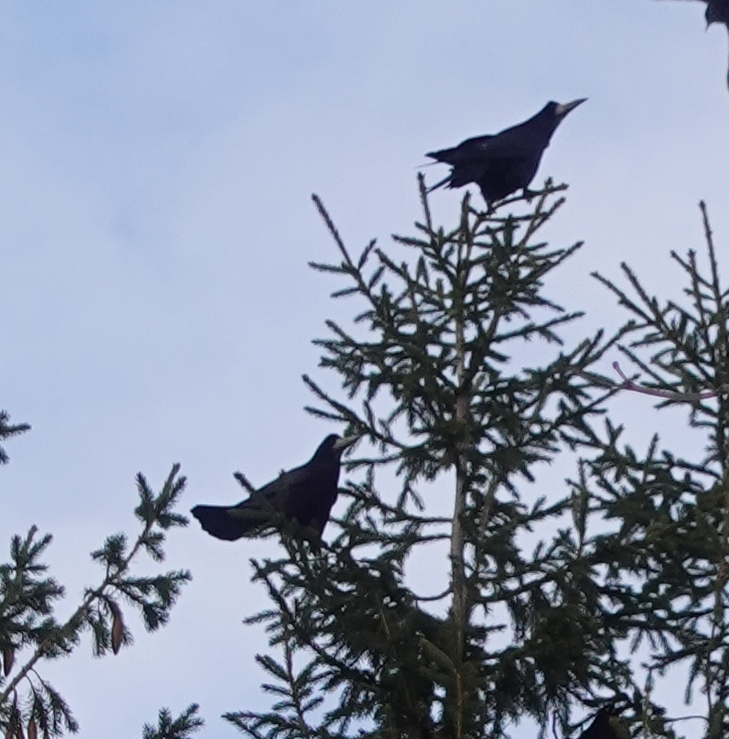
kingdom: Animalia
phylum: Chordata
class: Aves
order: Passeriformes
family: Corvidae
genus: Corvus
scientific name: Corvus frugilegus
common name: Rook
